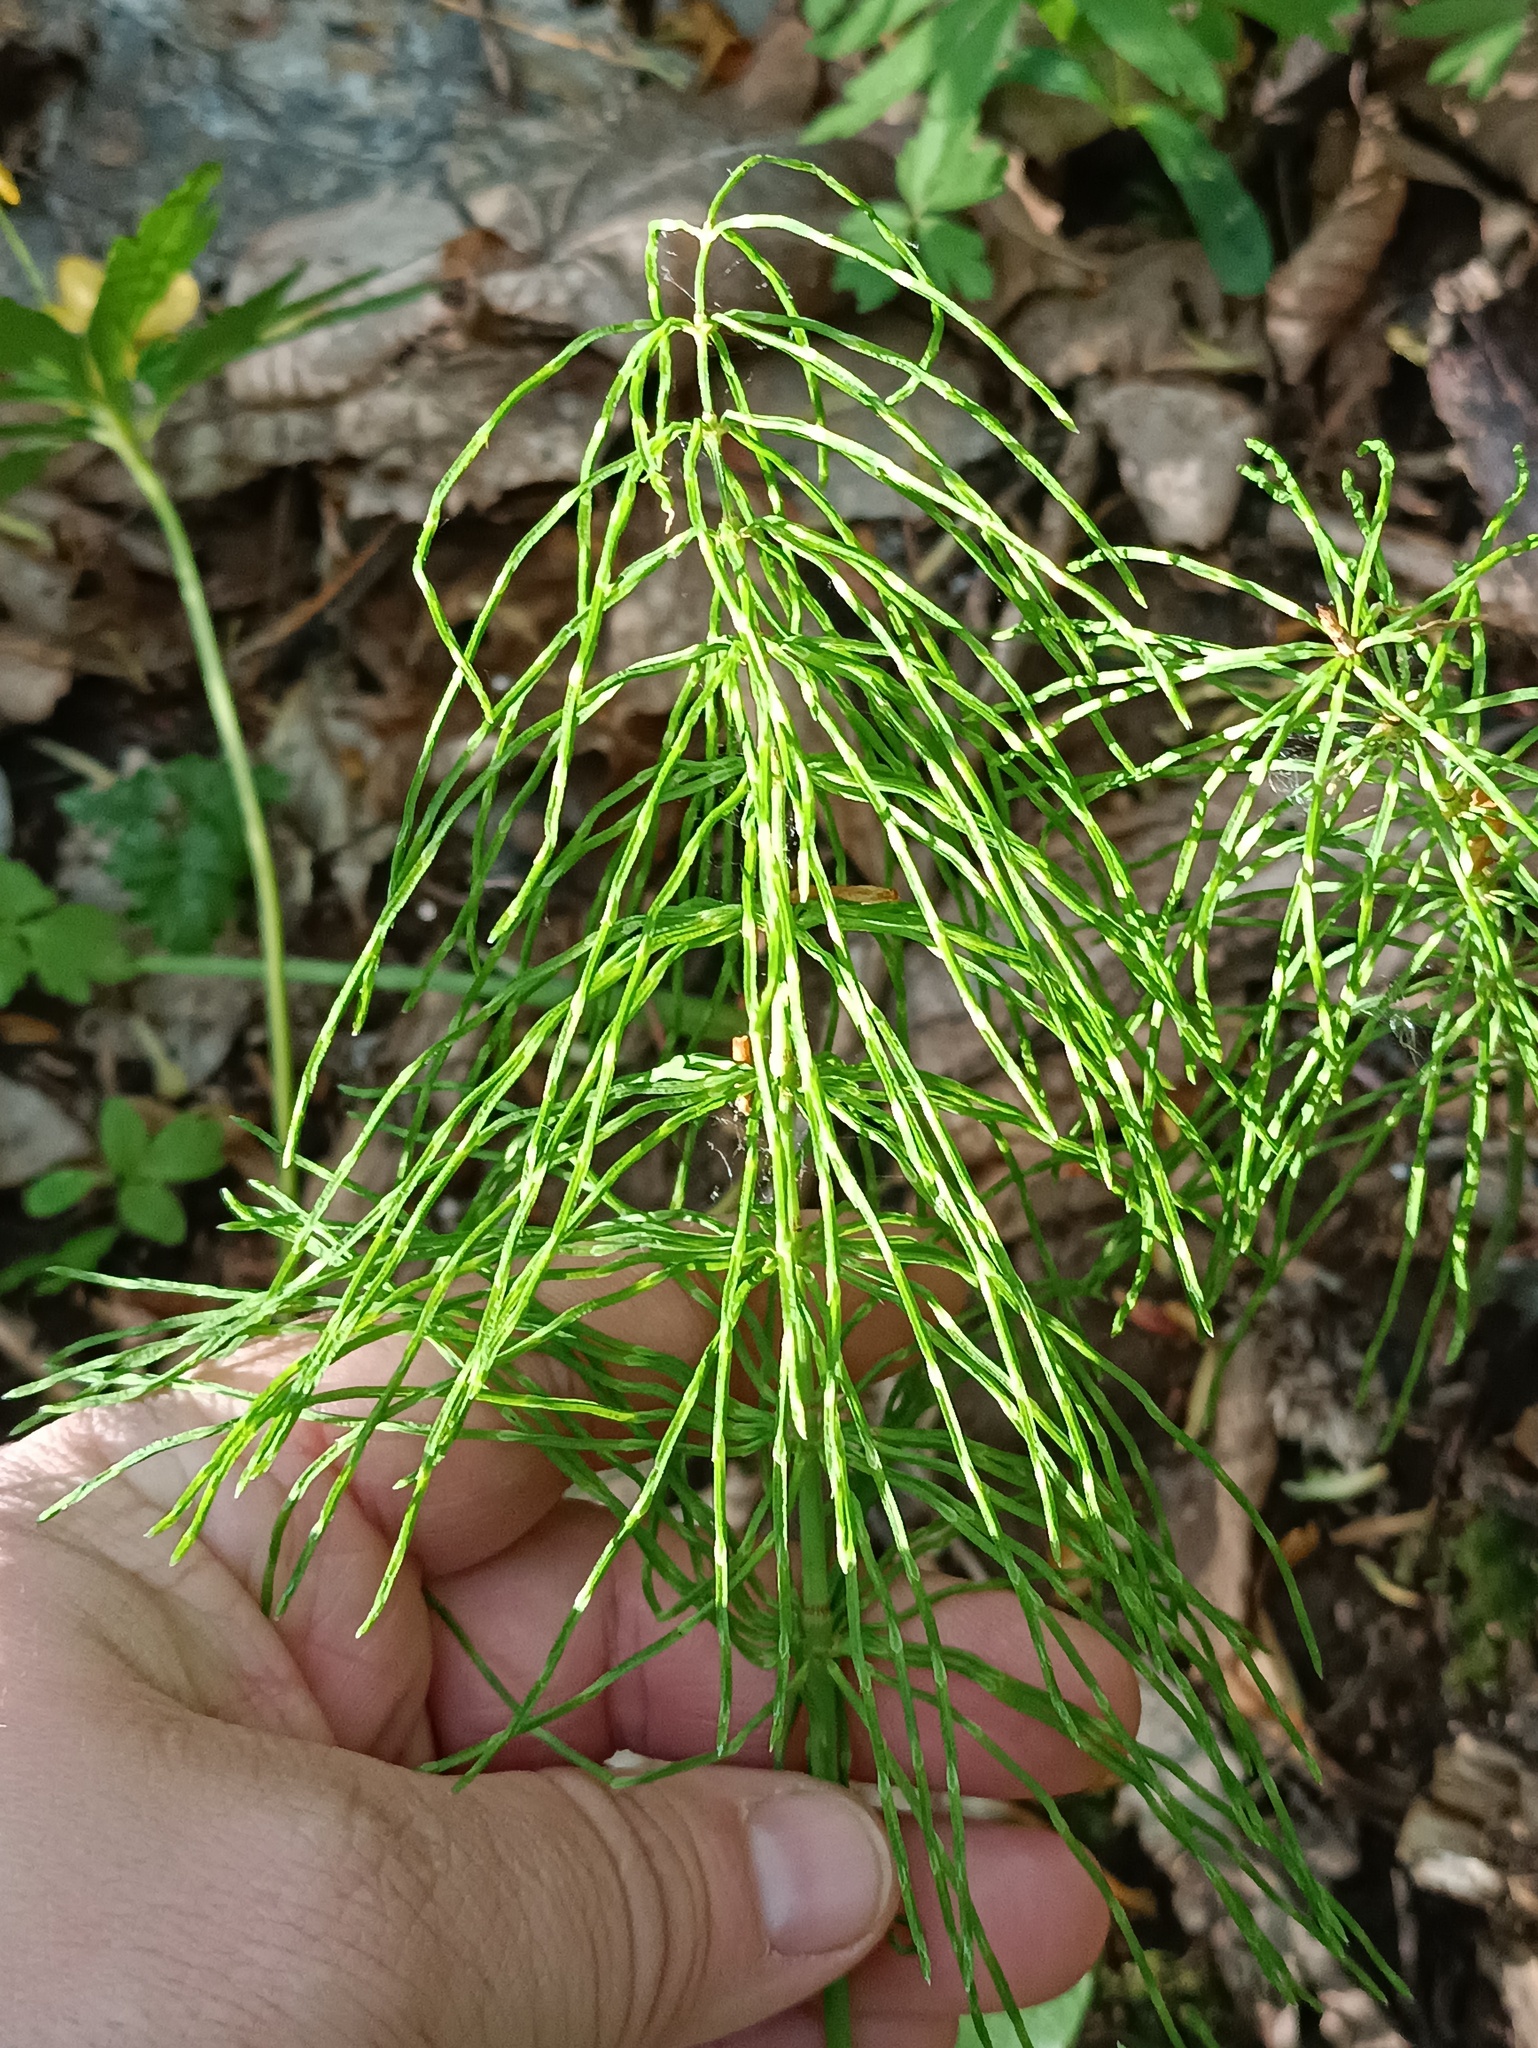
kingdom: Plantae
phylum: Tracheophyta
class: Polypodiopsida
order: Equisetales
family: Equisetaceae
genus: Equisetum
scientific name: Equisetum pratense
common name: Meadow horsetail
